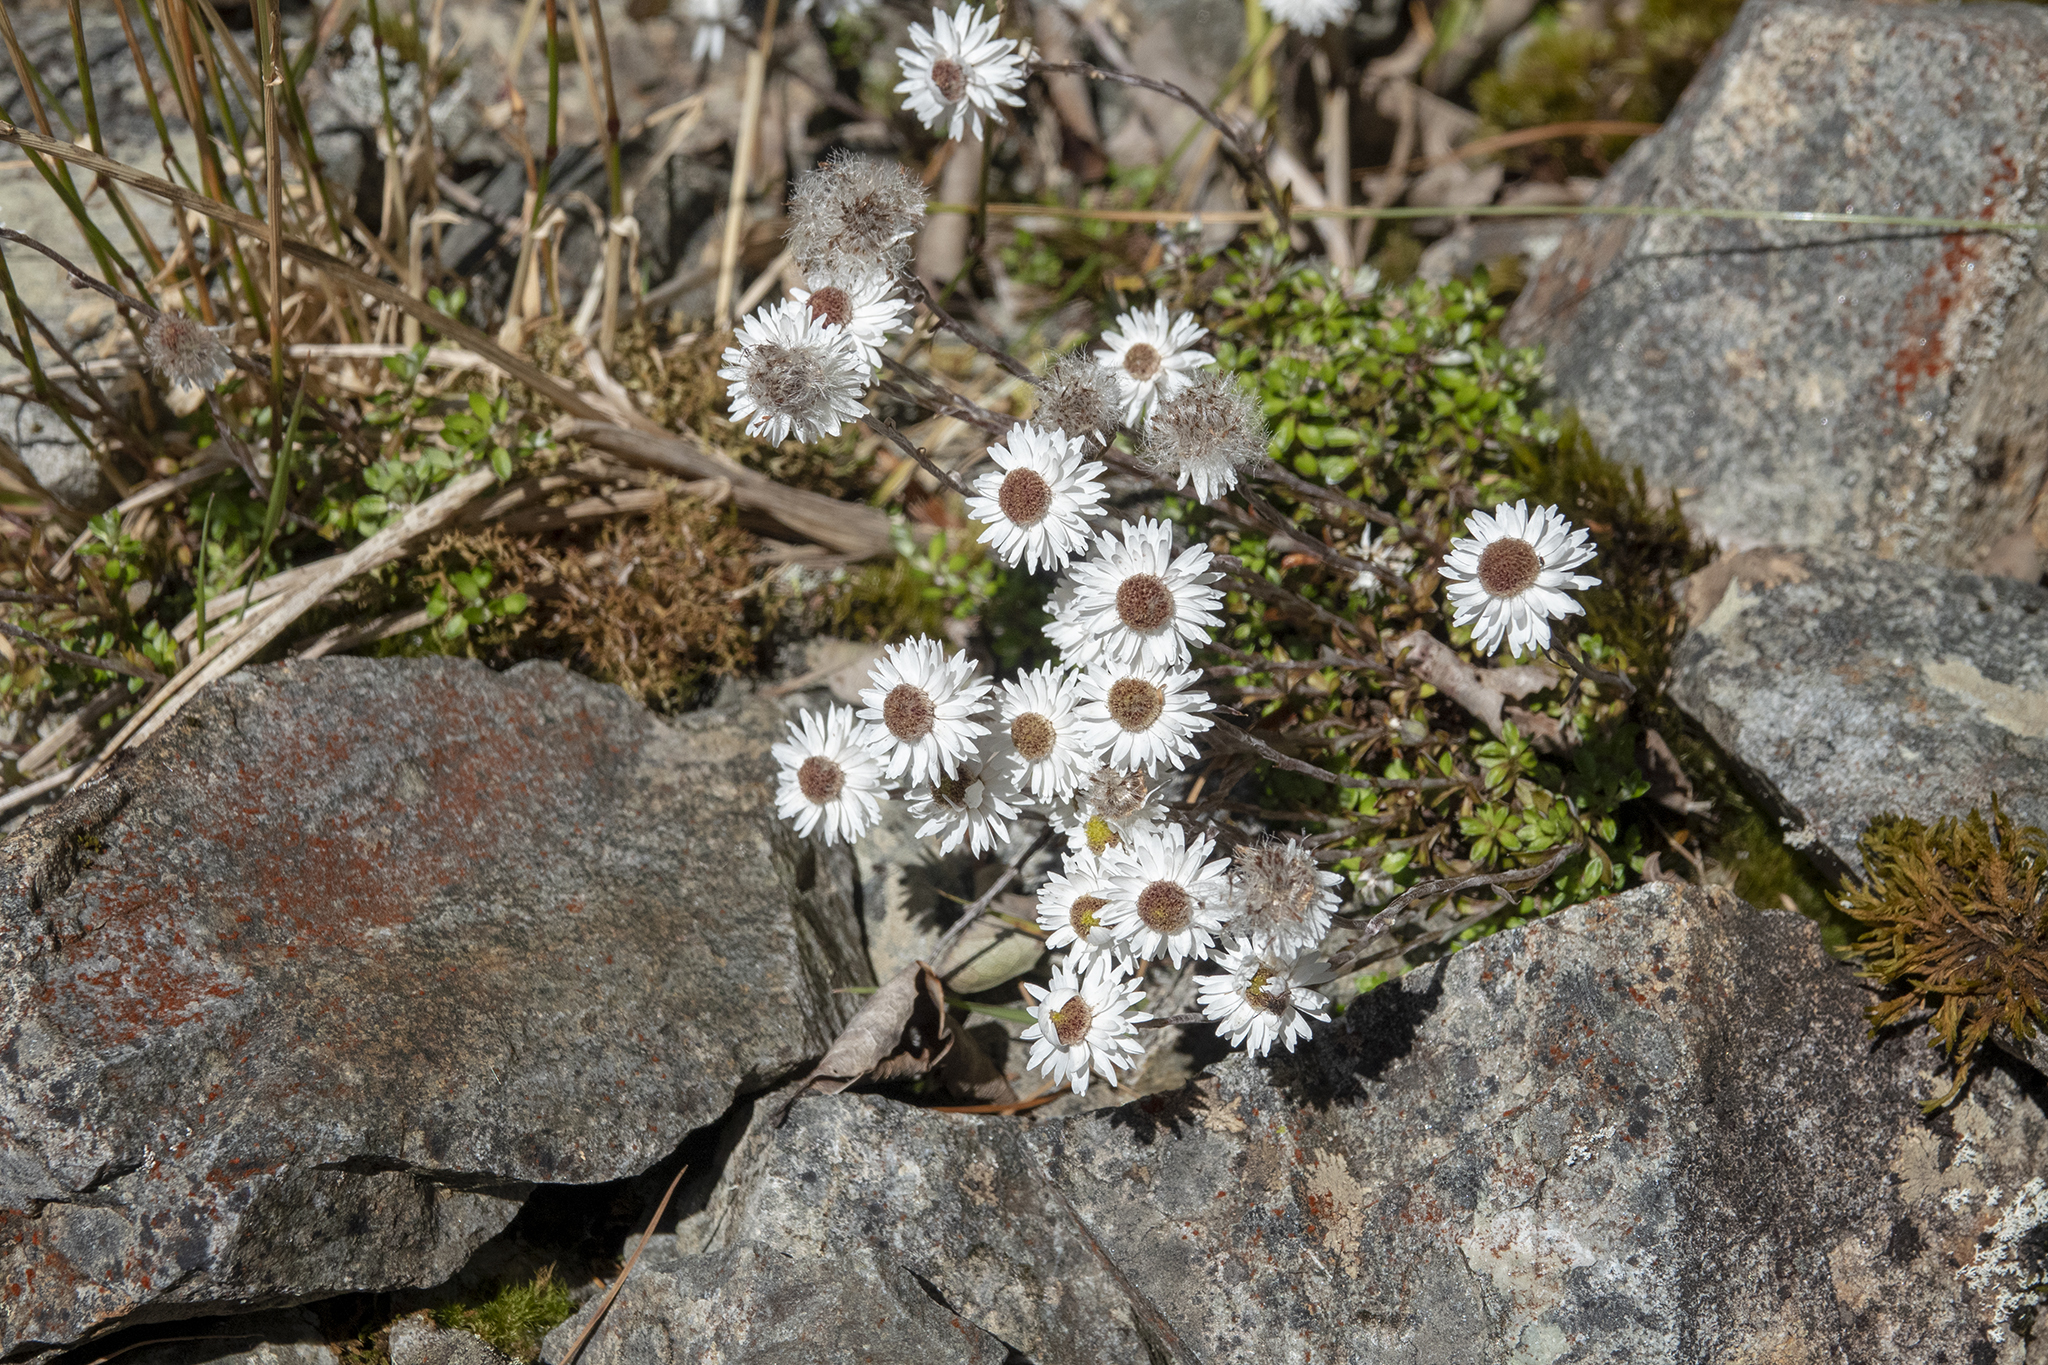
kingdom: Plantae
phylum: Tracheophyta
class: Magnoliopsida
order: Asterales
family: Asteraceae
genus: Anaphalioides
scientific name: Anaphalioides bellidioides
